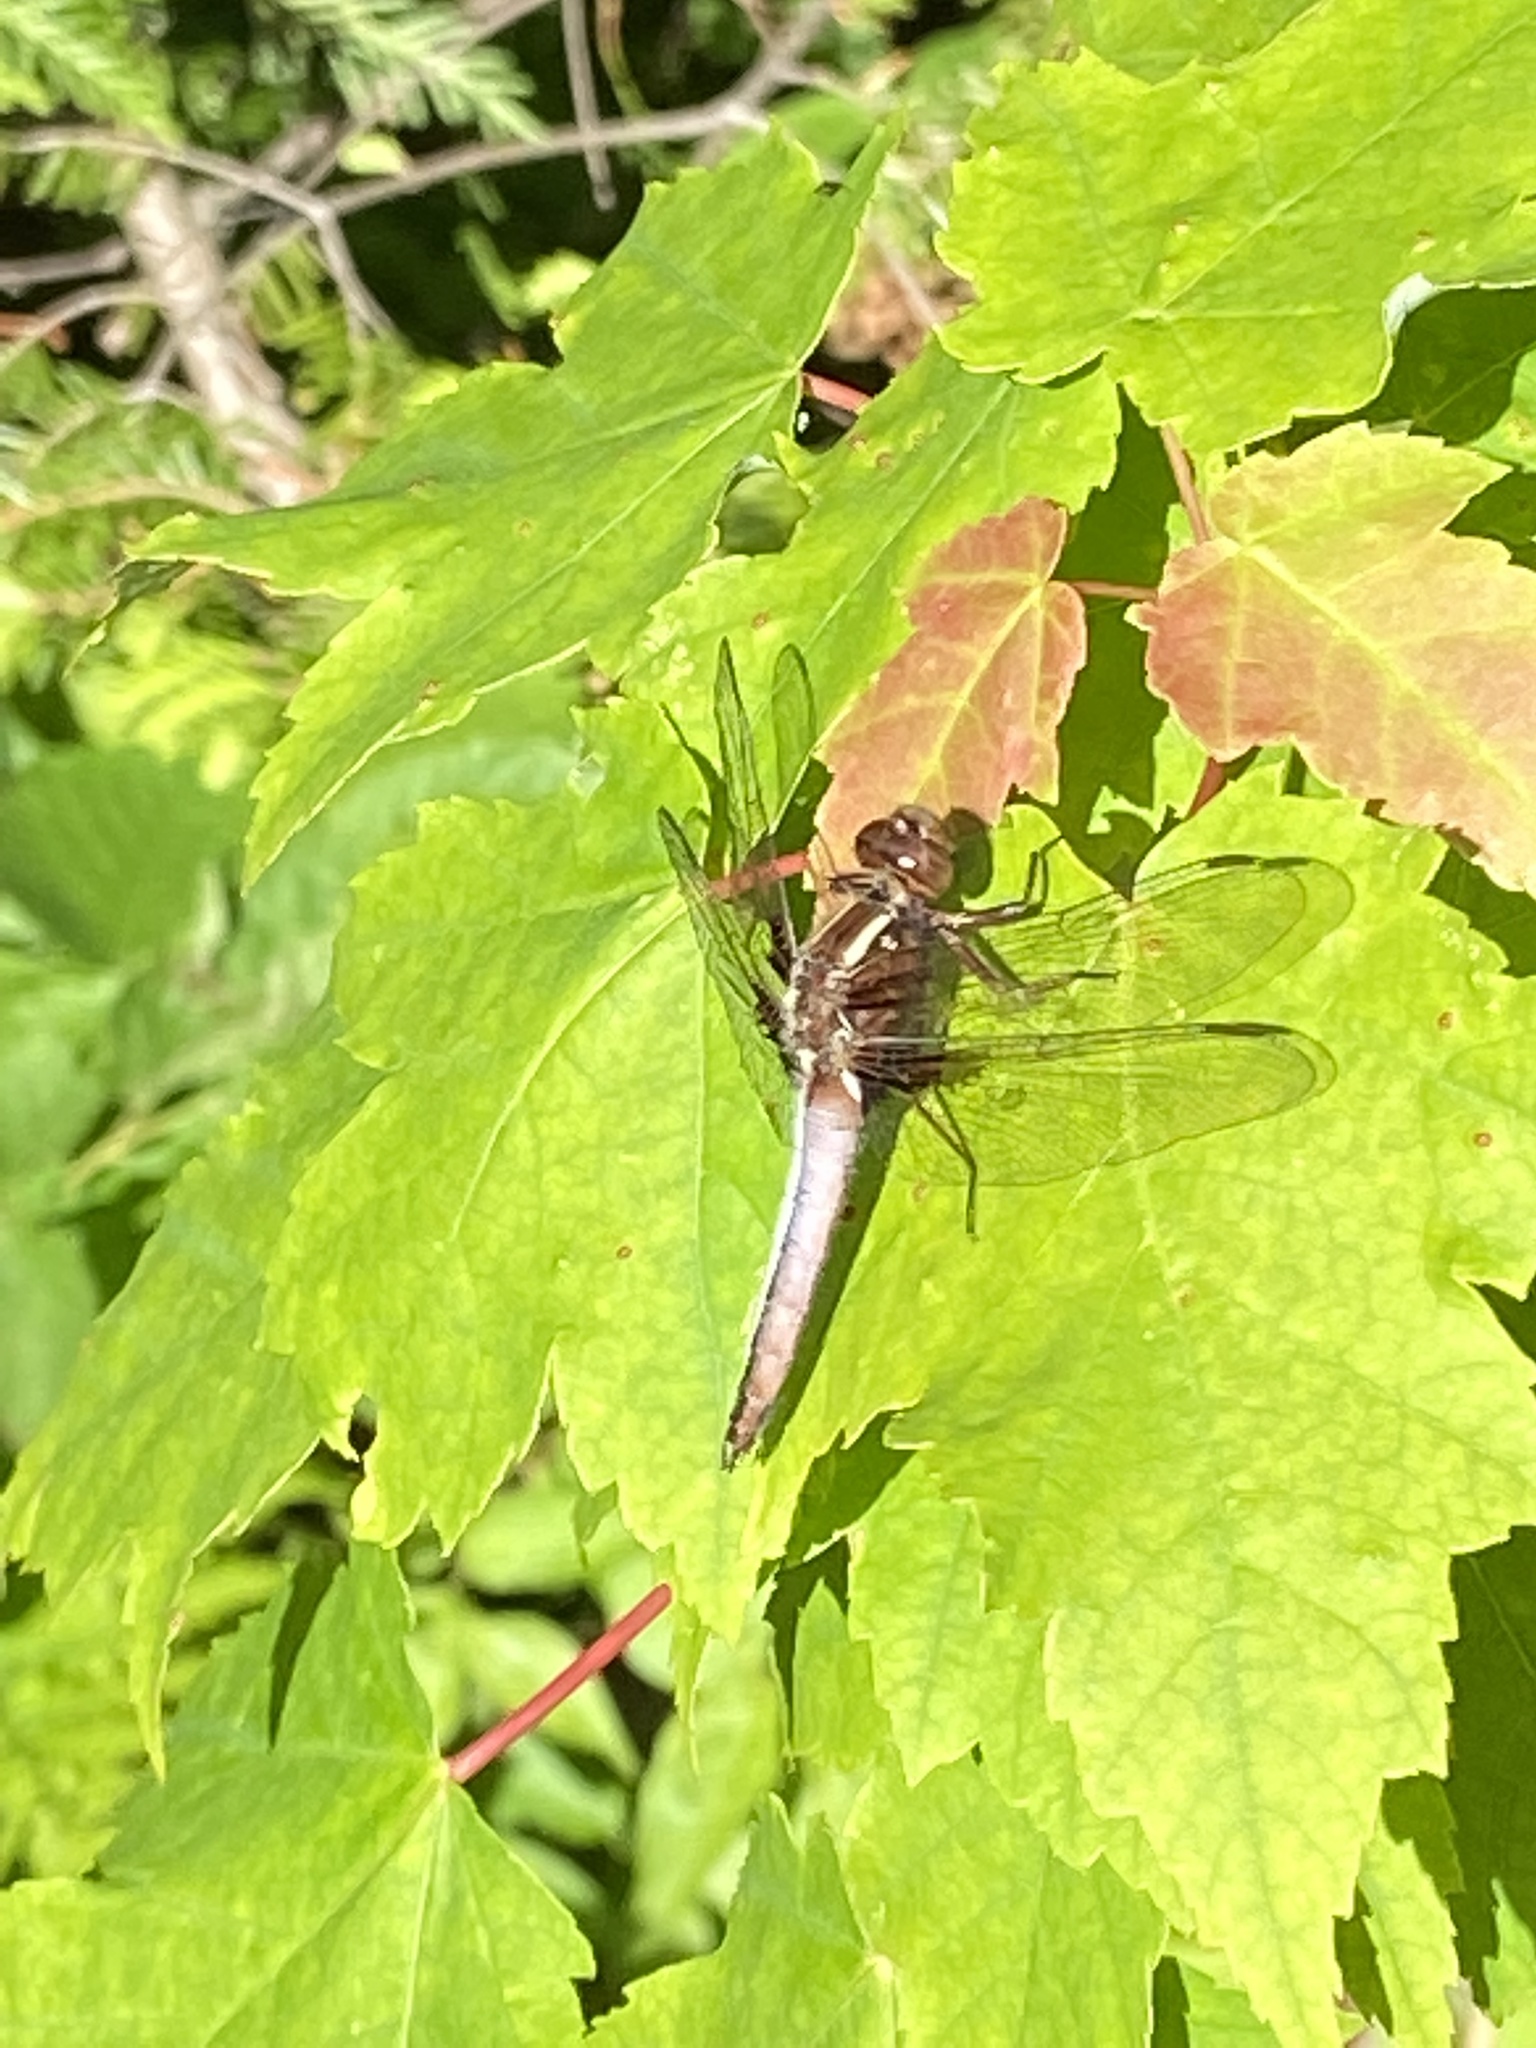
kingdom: Animalia
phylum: Arthropoda
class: Insecta
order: Odonata
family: Libellulidae
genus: Ladona
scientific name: Ladona exusta
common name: Libellule embrasée
